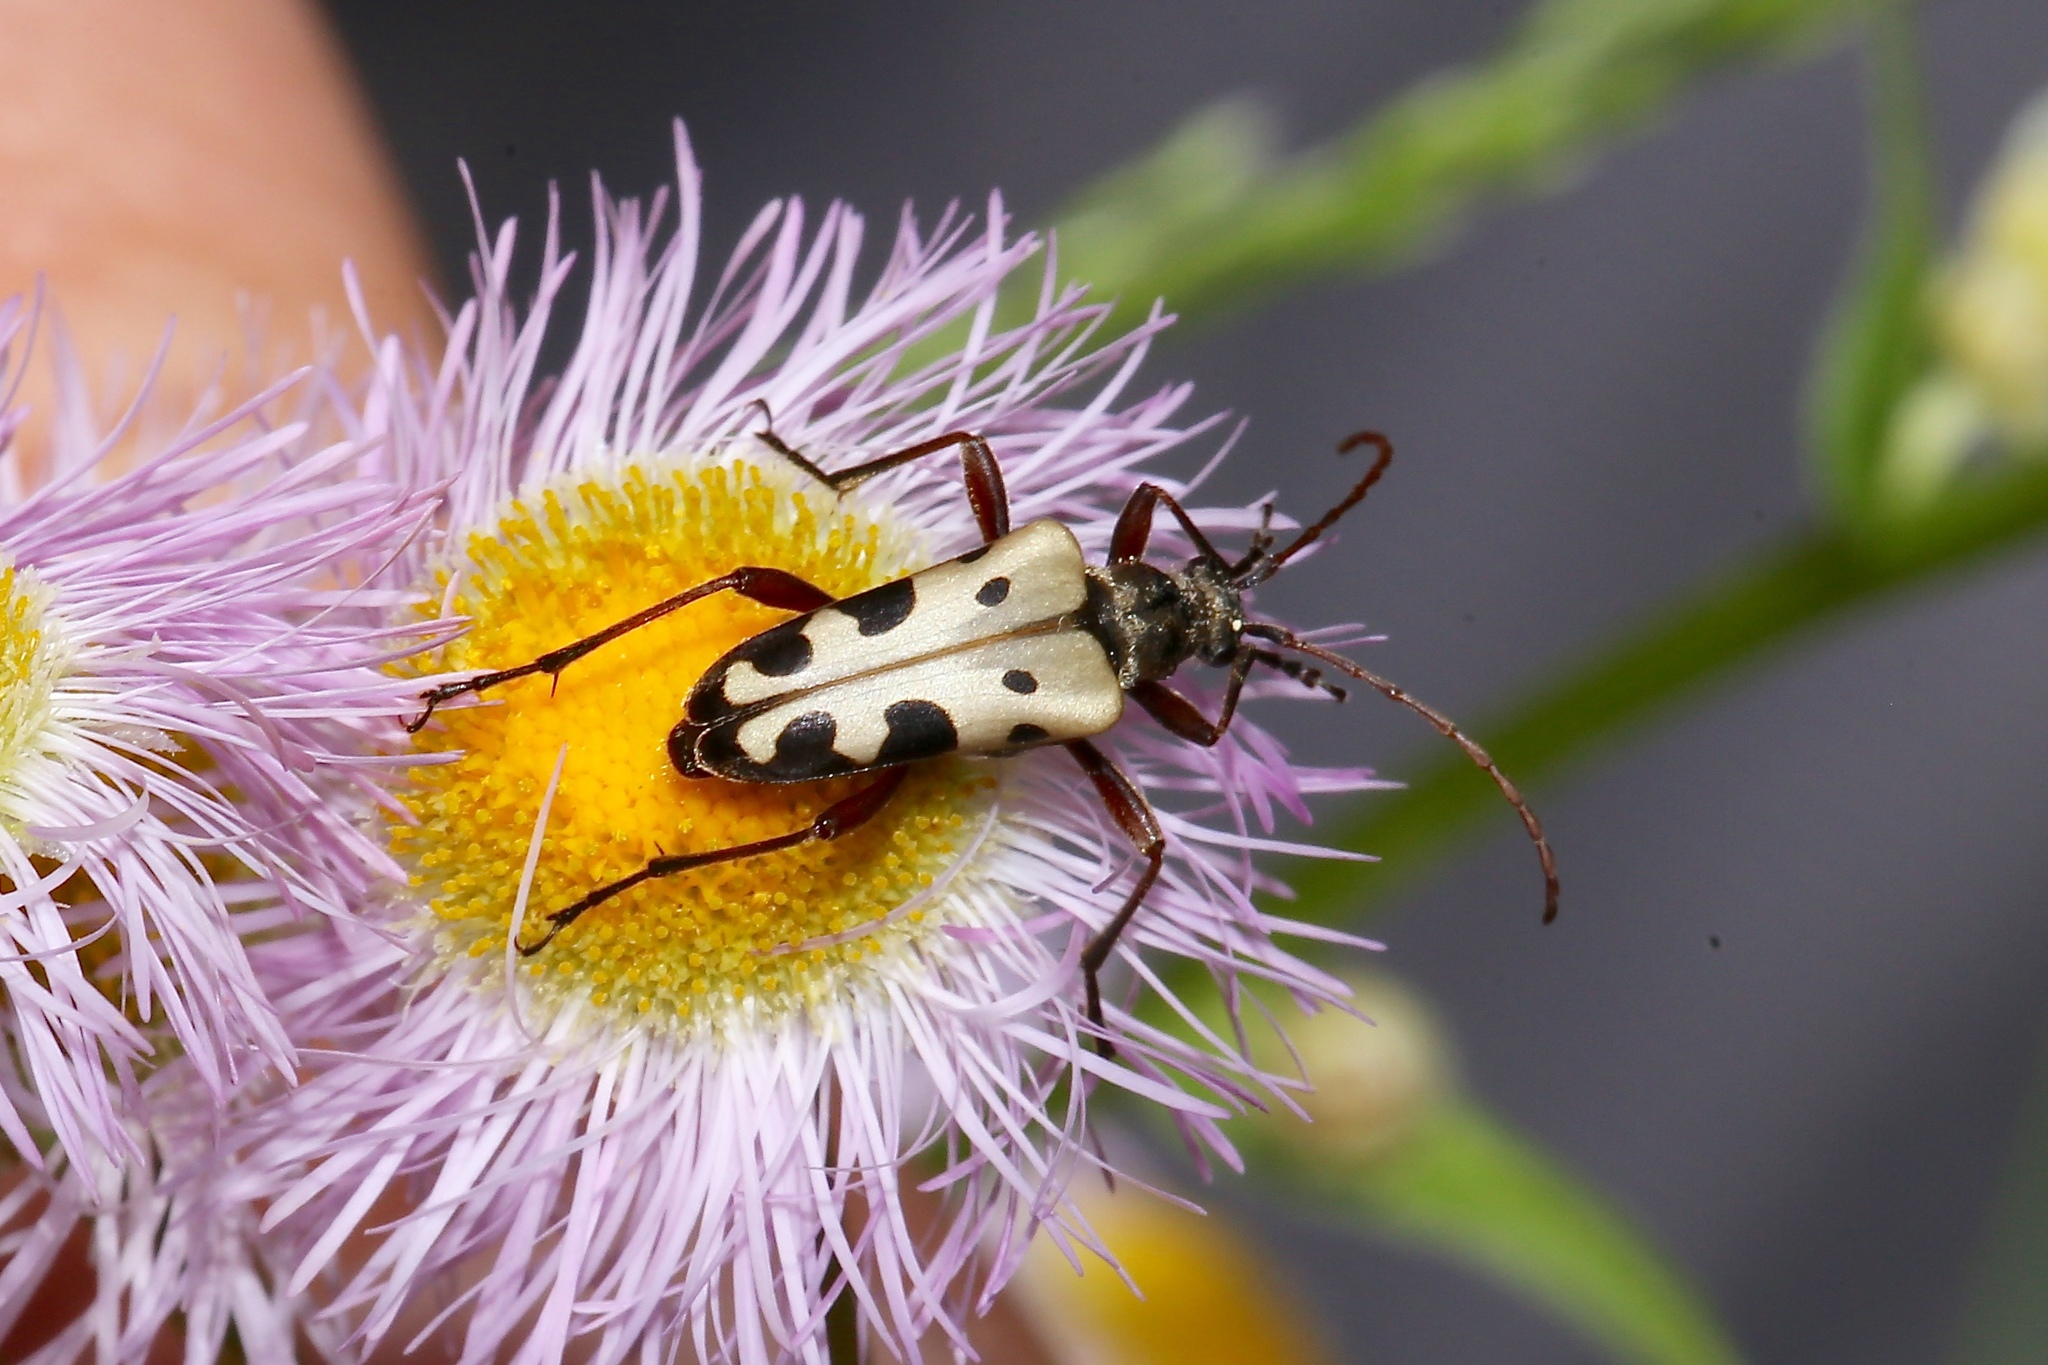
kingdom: Animalia
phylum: Arthropoda
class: Insecta
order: Coleoptera
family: Cerambycidae
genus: Evodinus
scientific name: Evodinus monticola
